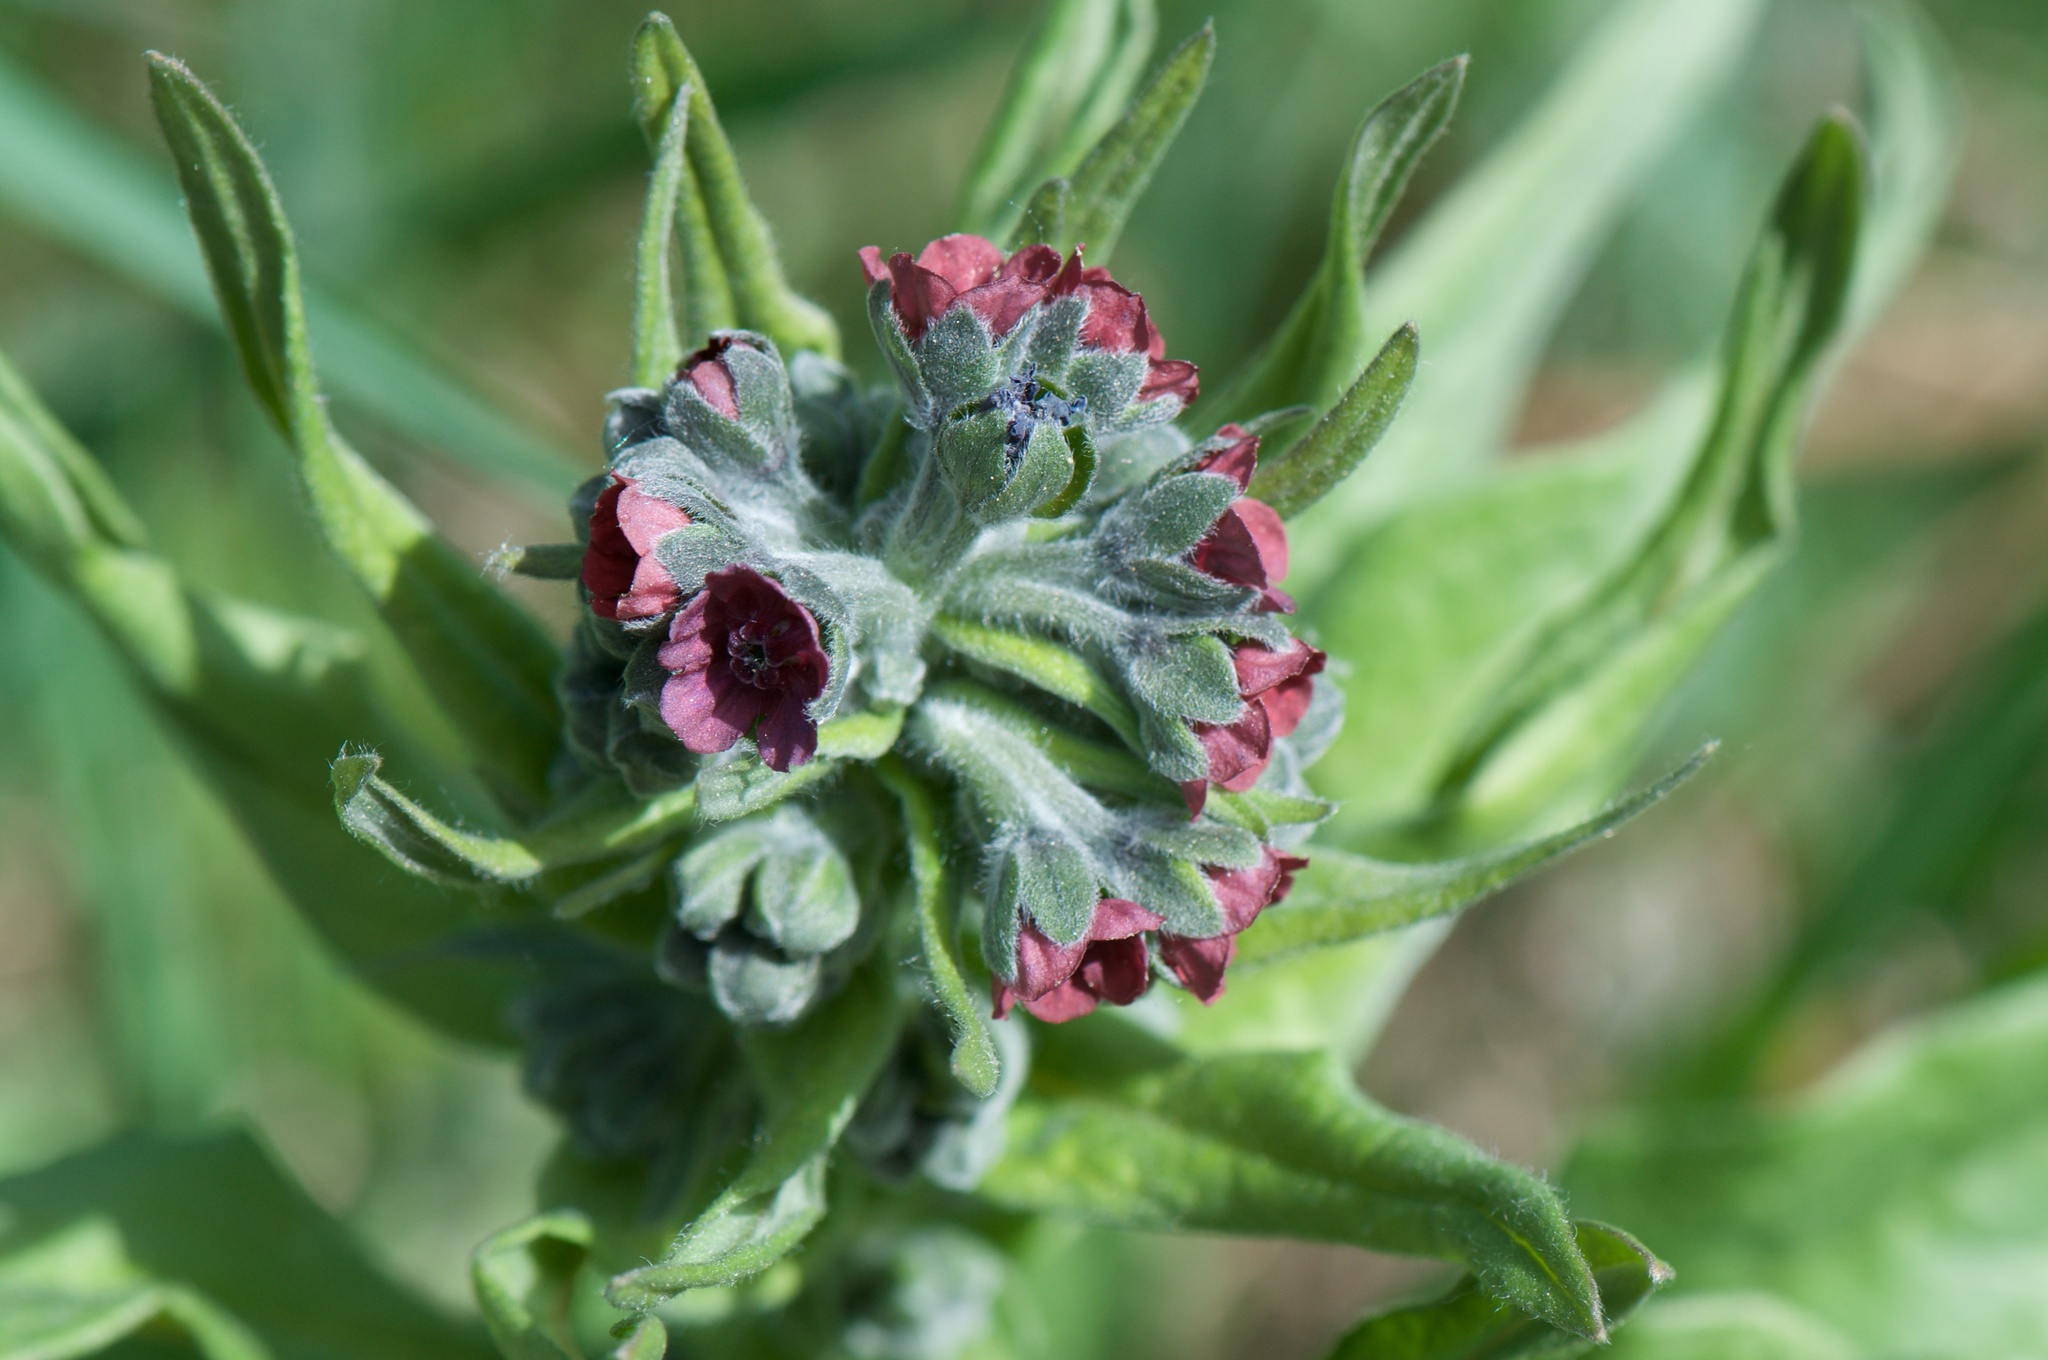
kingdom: Plantae
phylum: Tracheophyta
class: Magnoliopsida
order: Boraginales
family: Boraginaceae
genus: Cynoglossum
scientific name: Cynoglossum officinale
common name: Hound's-tongue
